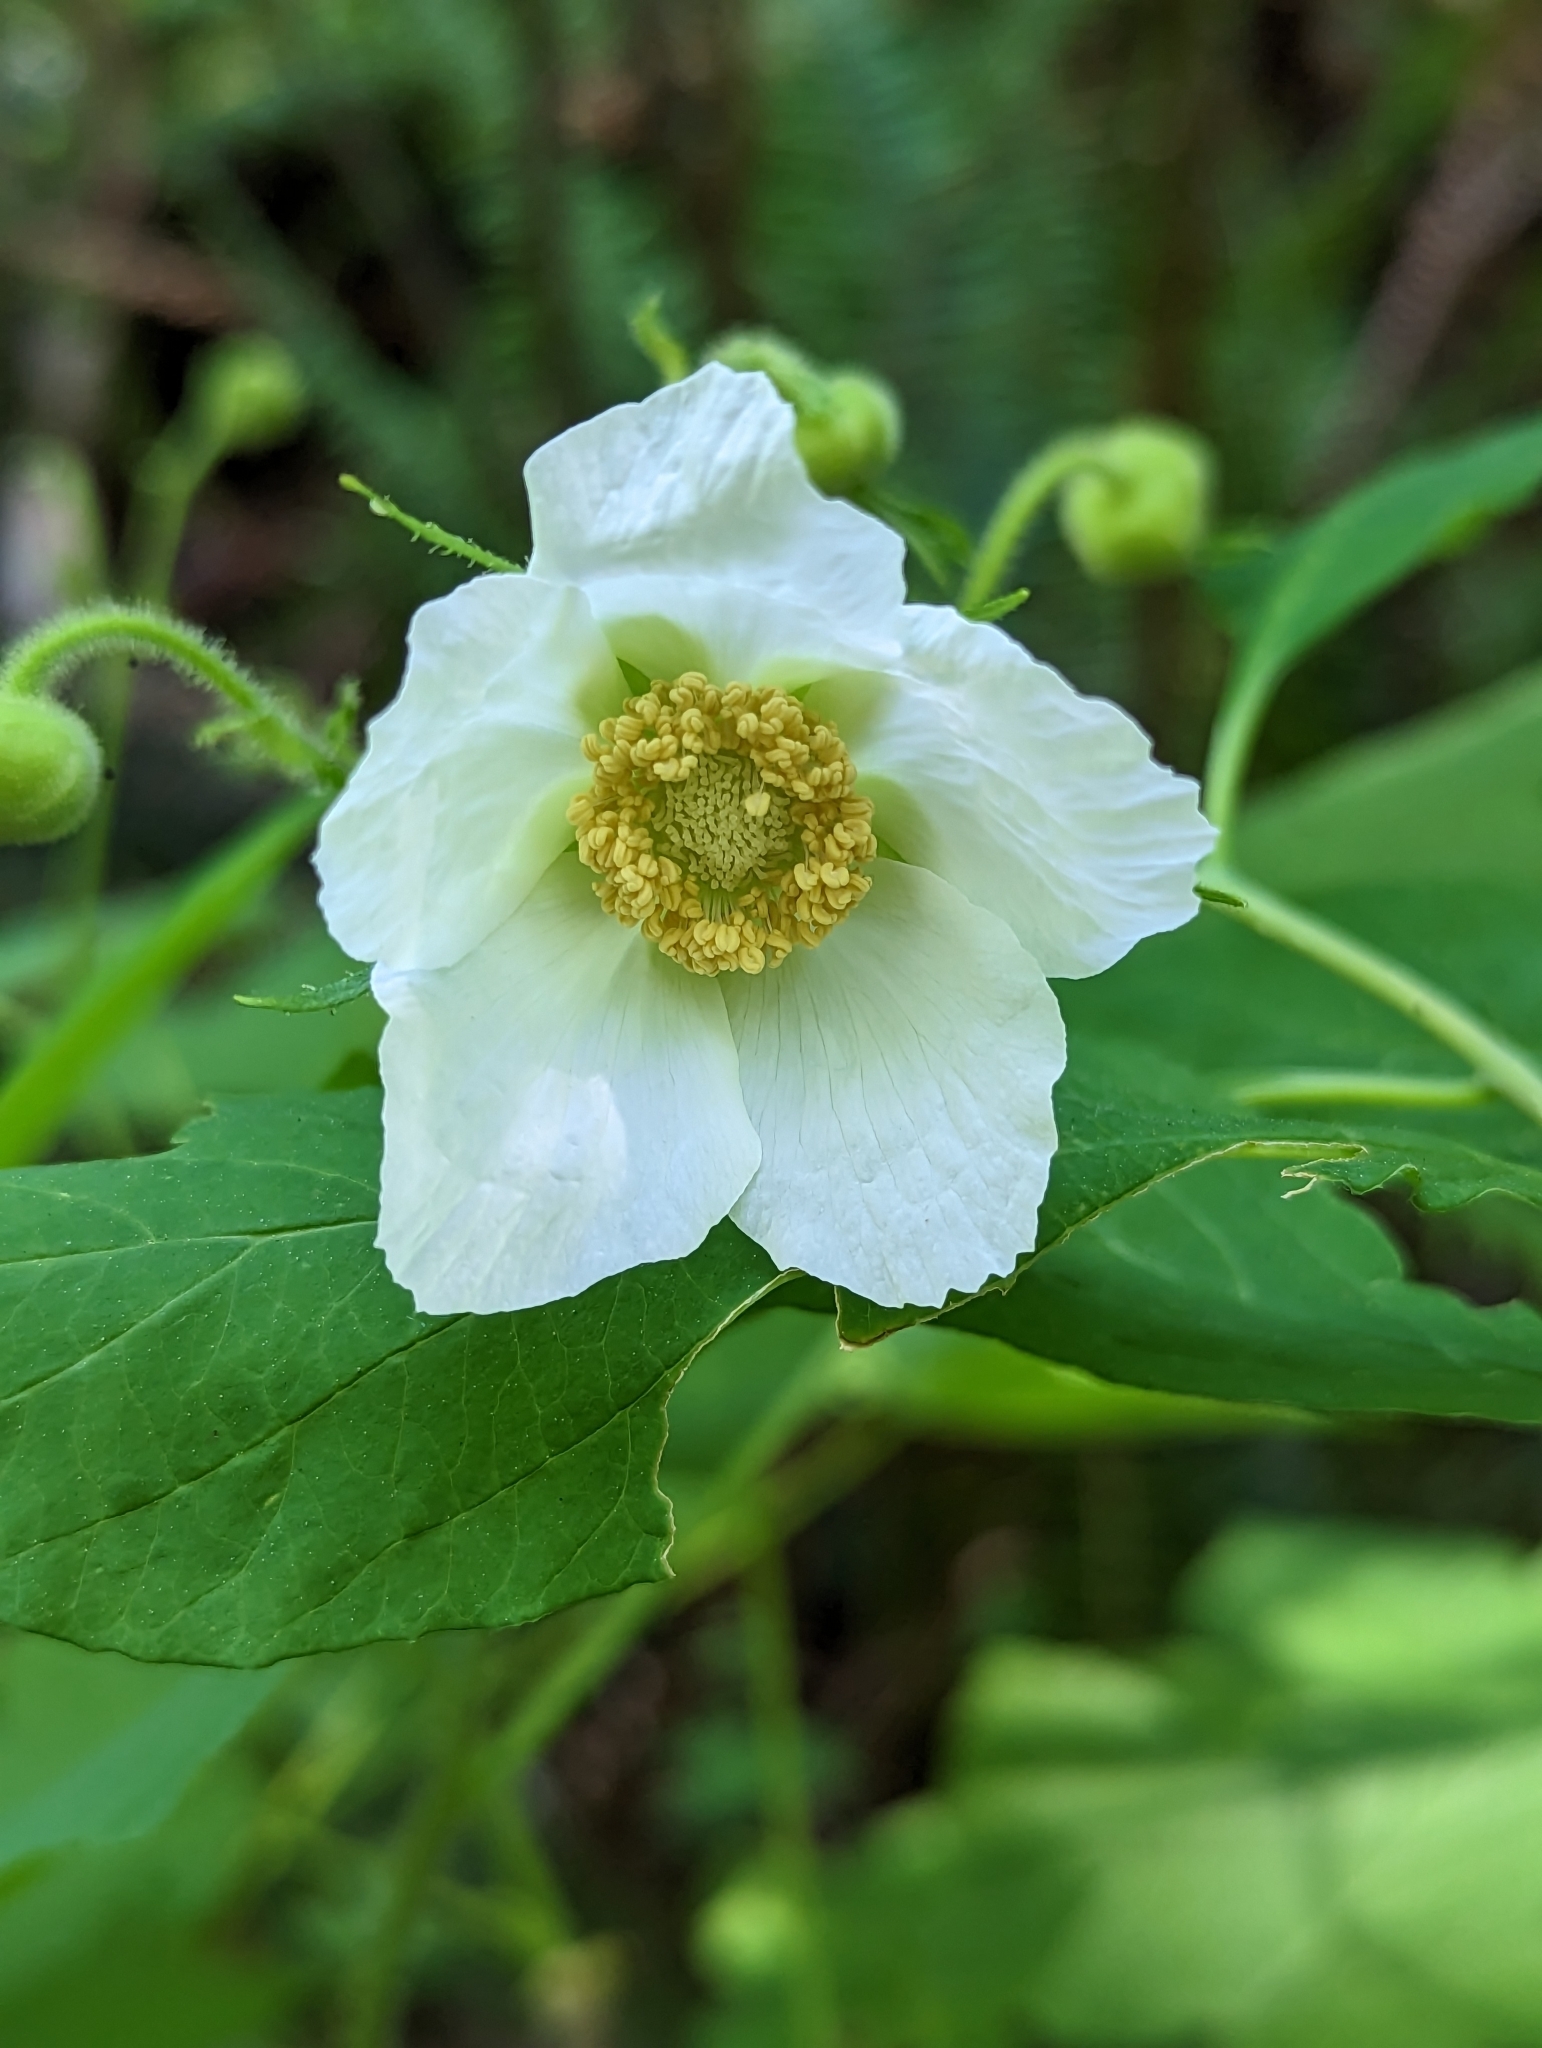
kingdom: Plantae
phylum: Tracheophyta
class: Magnoliopsida
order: Rosales
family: Rosaceae
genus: Rubus
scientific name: Rubus parviflorus
